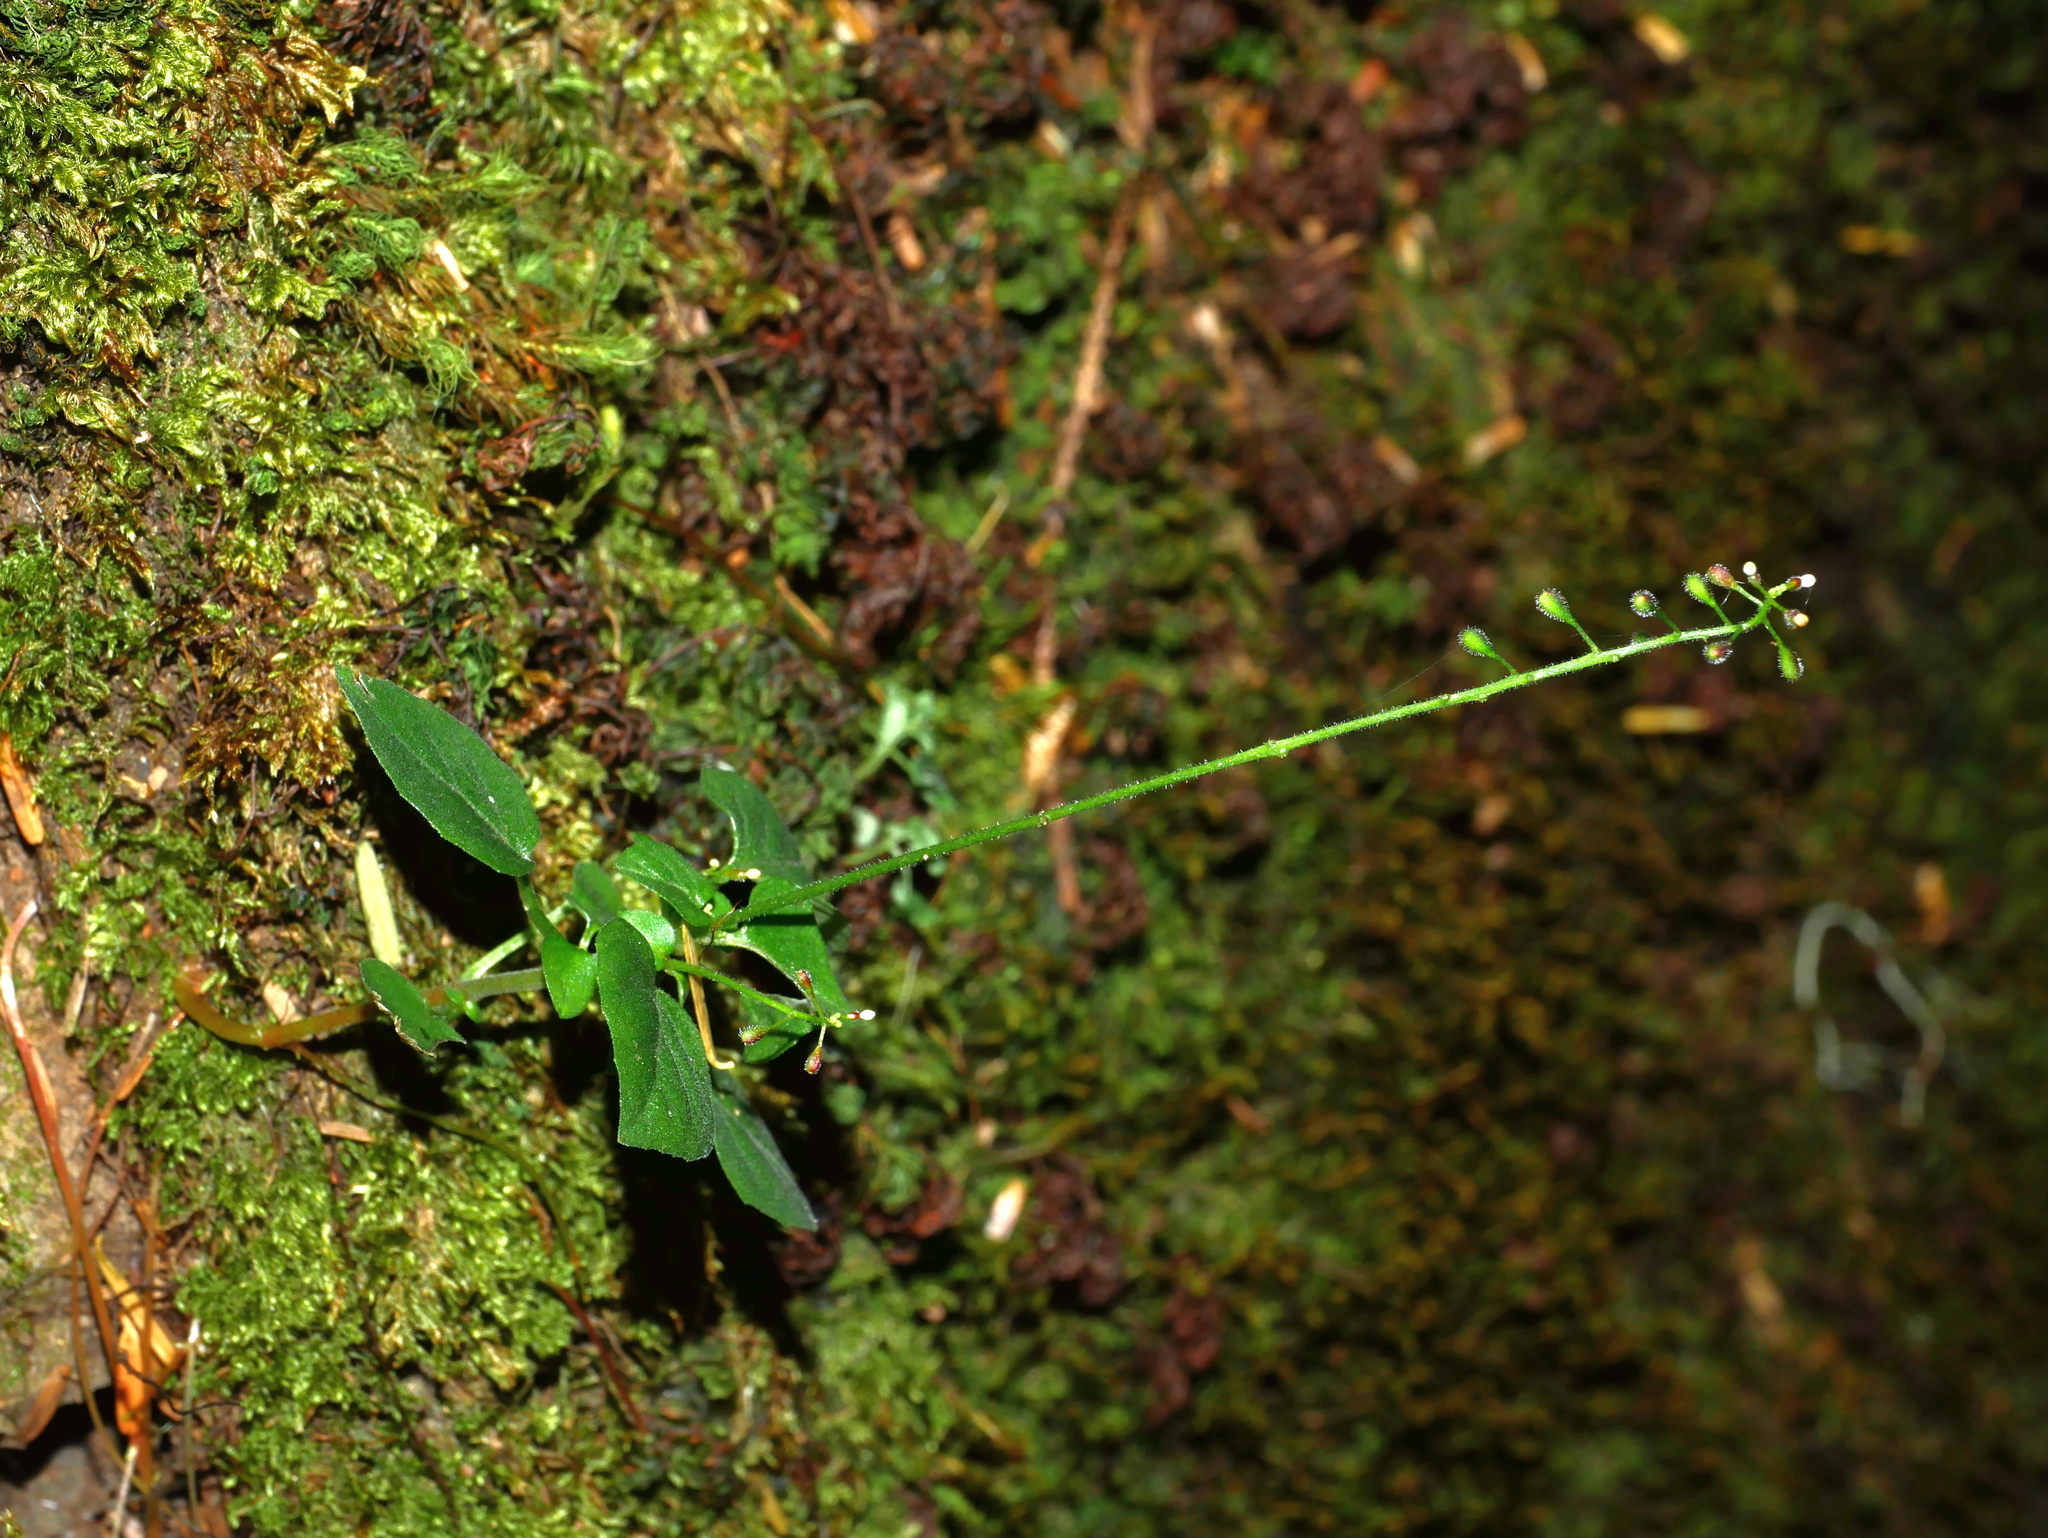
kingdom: Plantae
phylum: Tracheophyta
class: Magnoliopsida
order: Myrtales
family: Onagraceae
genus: Circaea
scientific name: Circaea alpina
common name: Alpine enchanter's-nightshade
